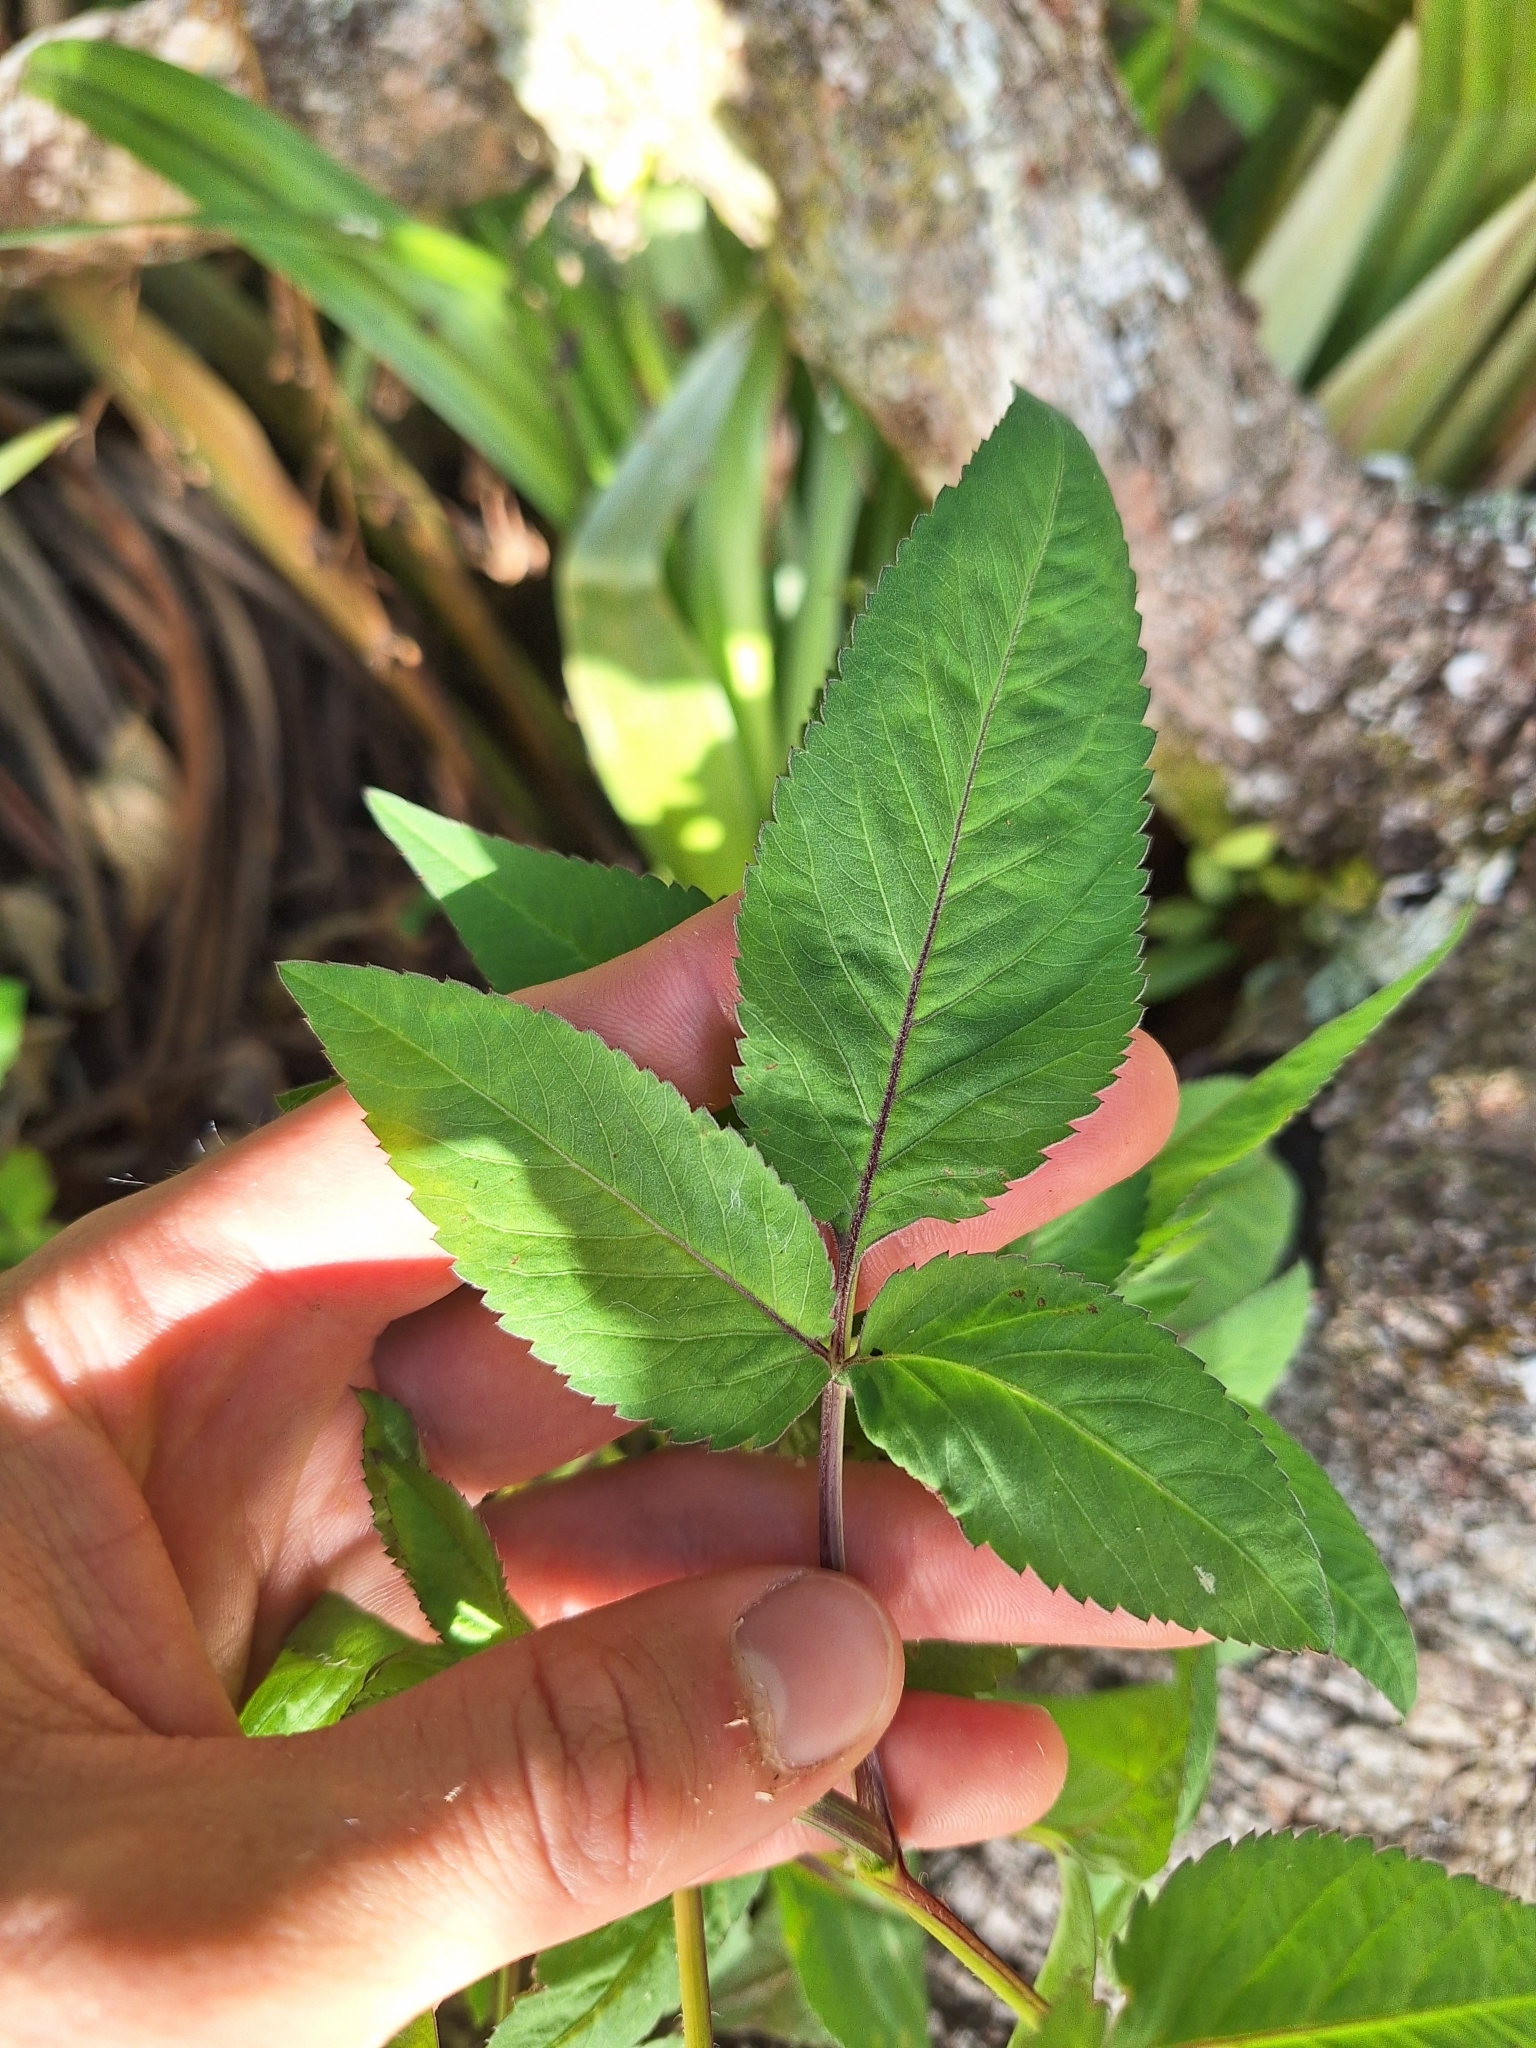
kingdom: Plantae
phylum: Tracheophyta
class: Magnoliopsida
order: Asterales
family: Asteraceae
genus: Bidens
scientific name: Bidens pilosa
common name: Black-jack
